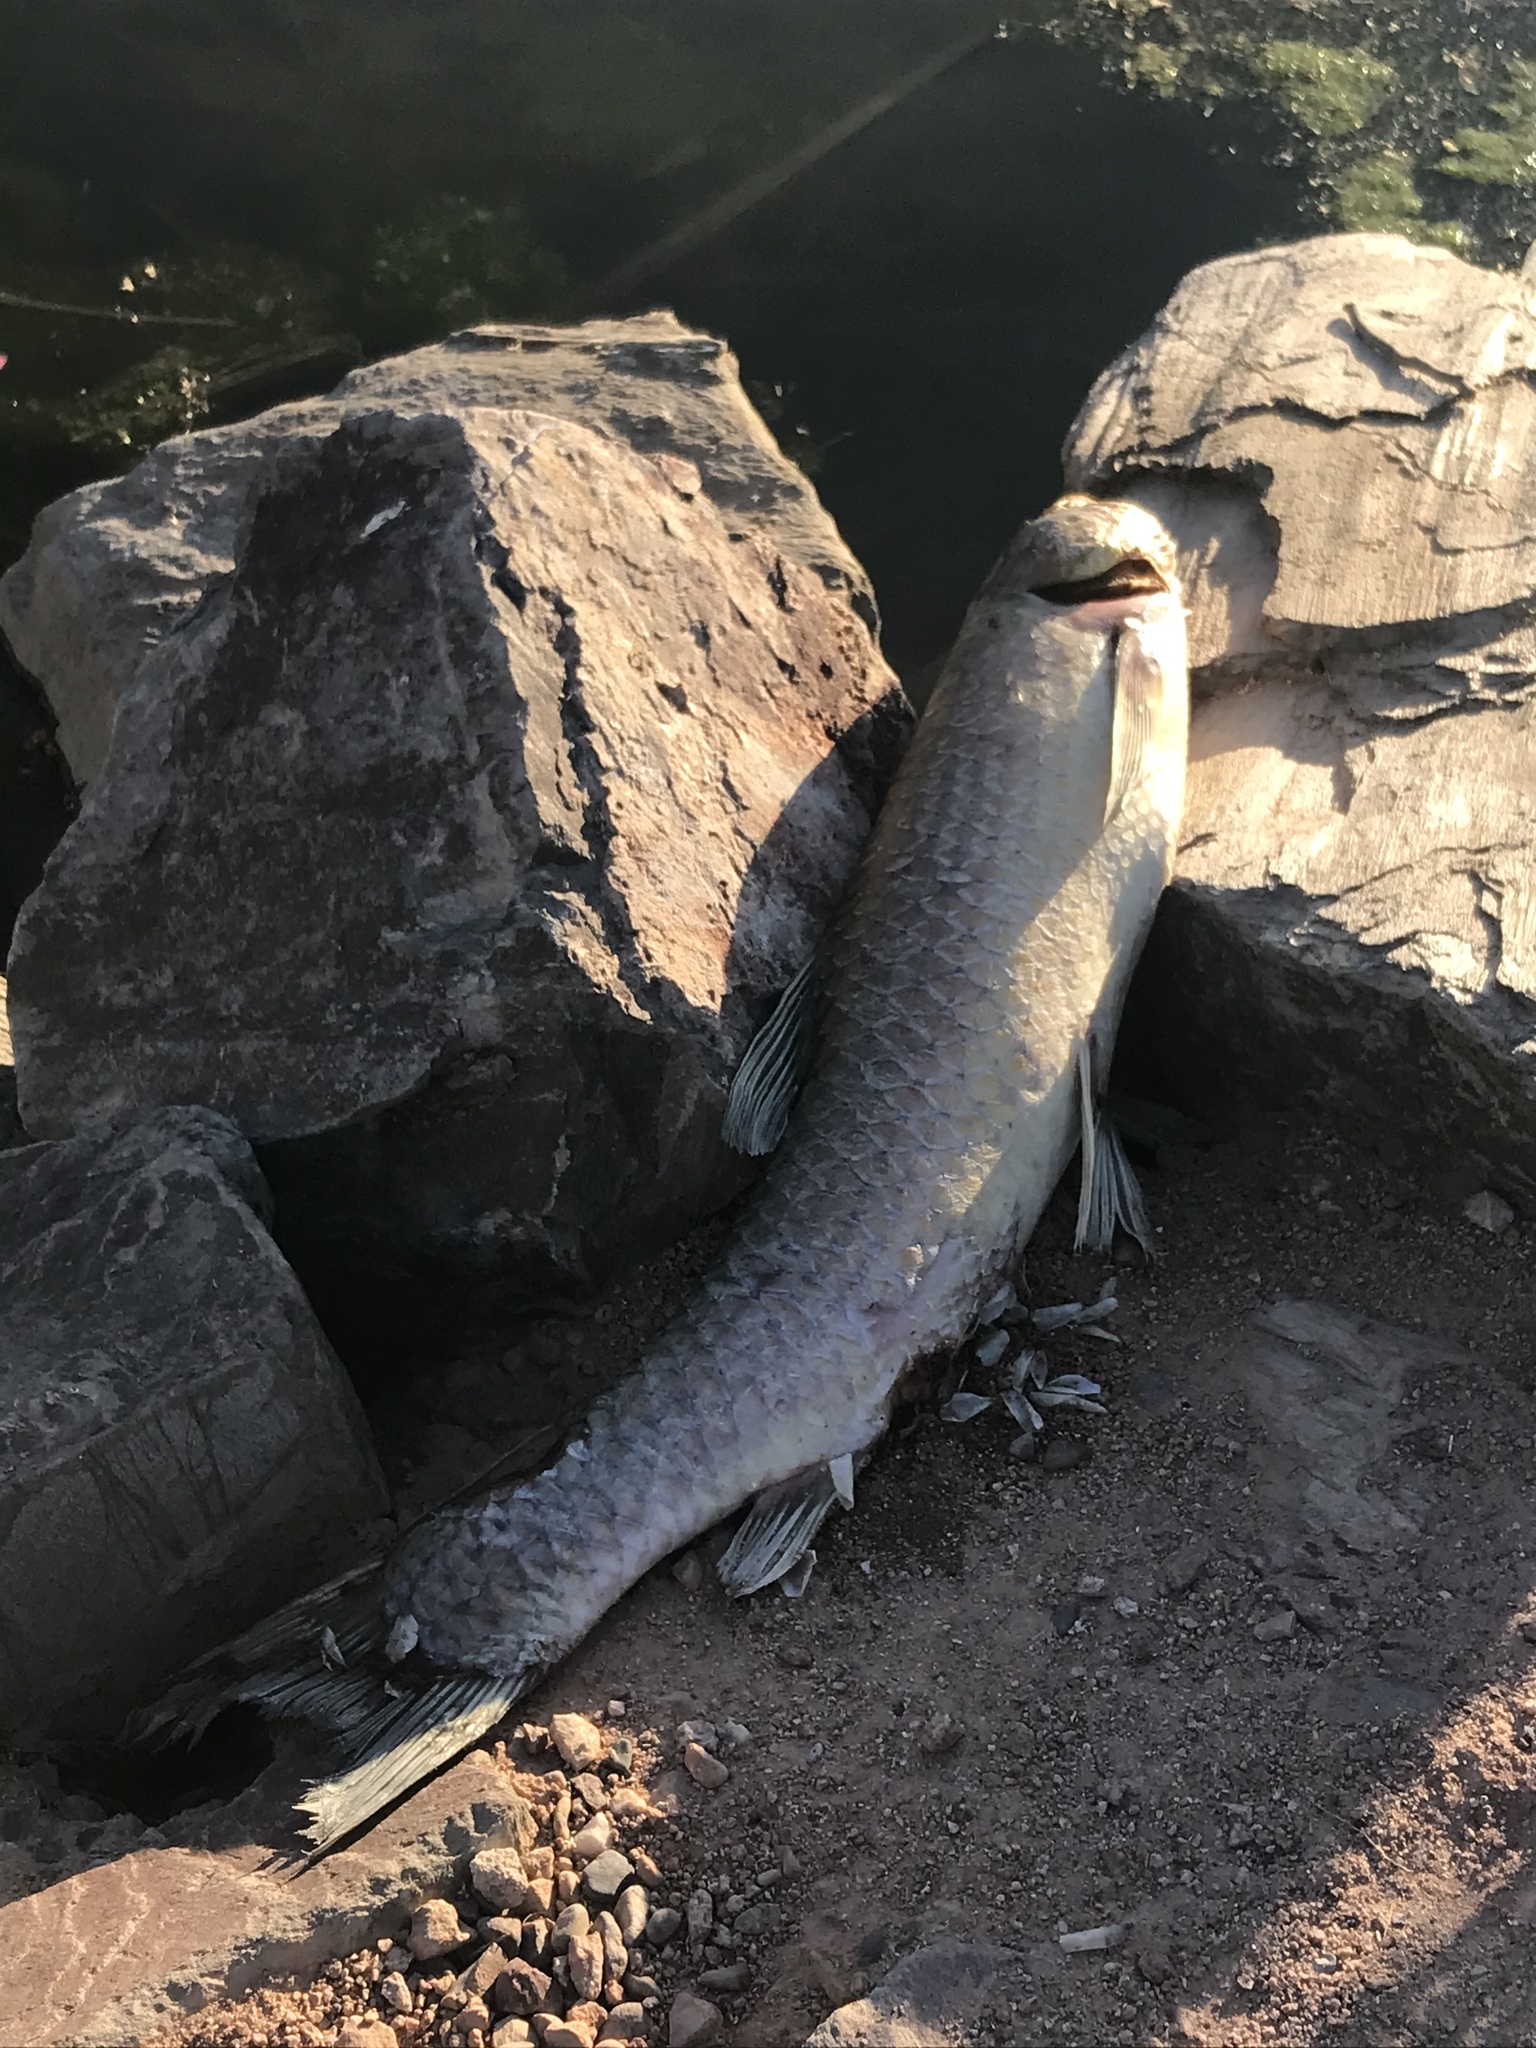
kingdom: Animalia
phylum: Chordata
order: Cypriniformes
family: Cyprinidae
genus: Ctenopharyngodon
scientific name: Ctenopharyngodon idella
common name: Grass carp
